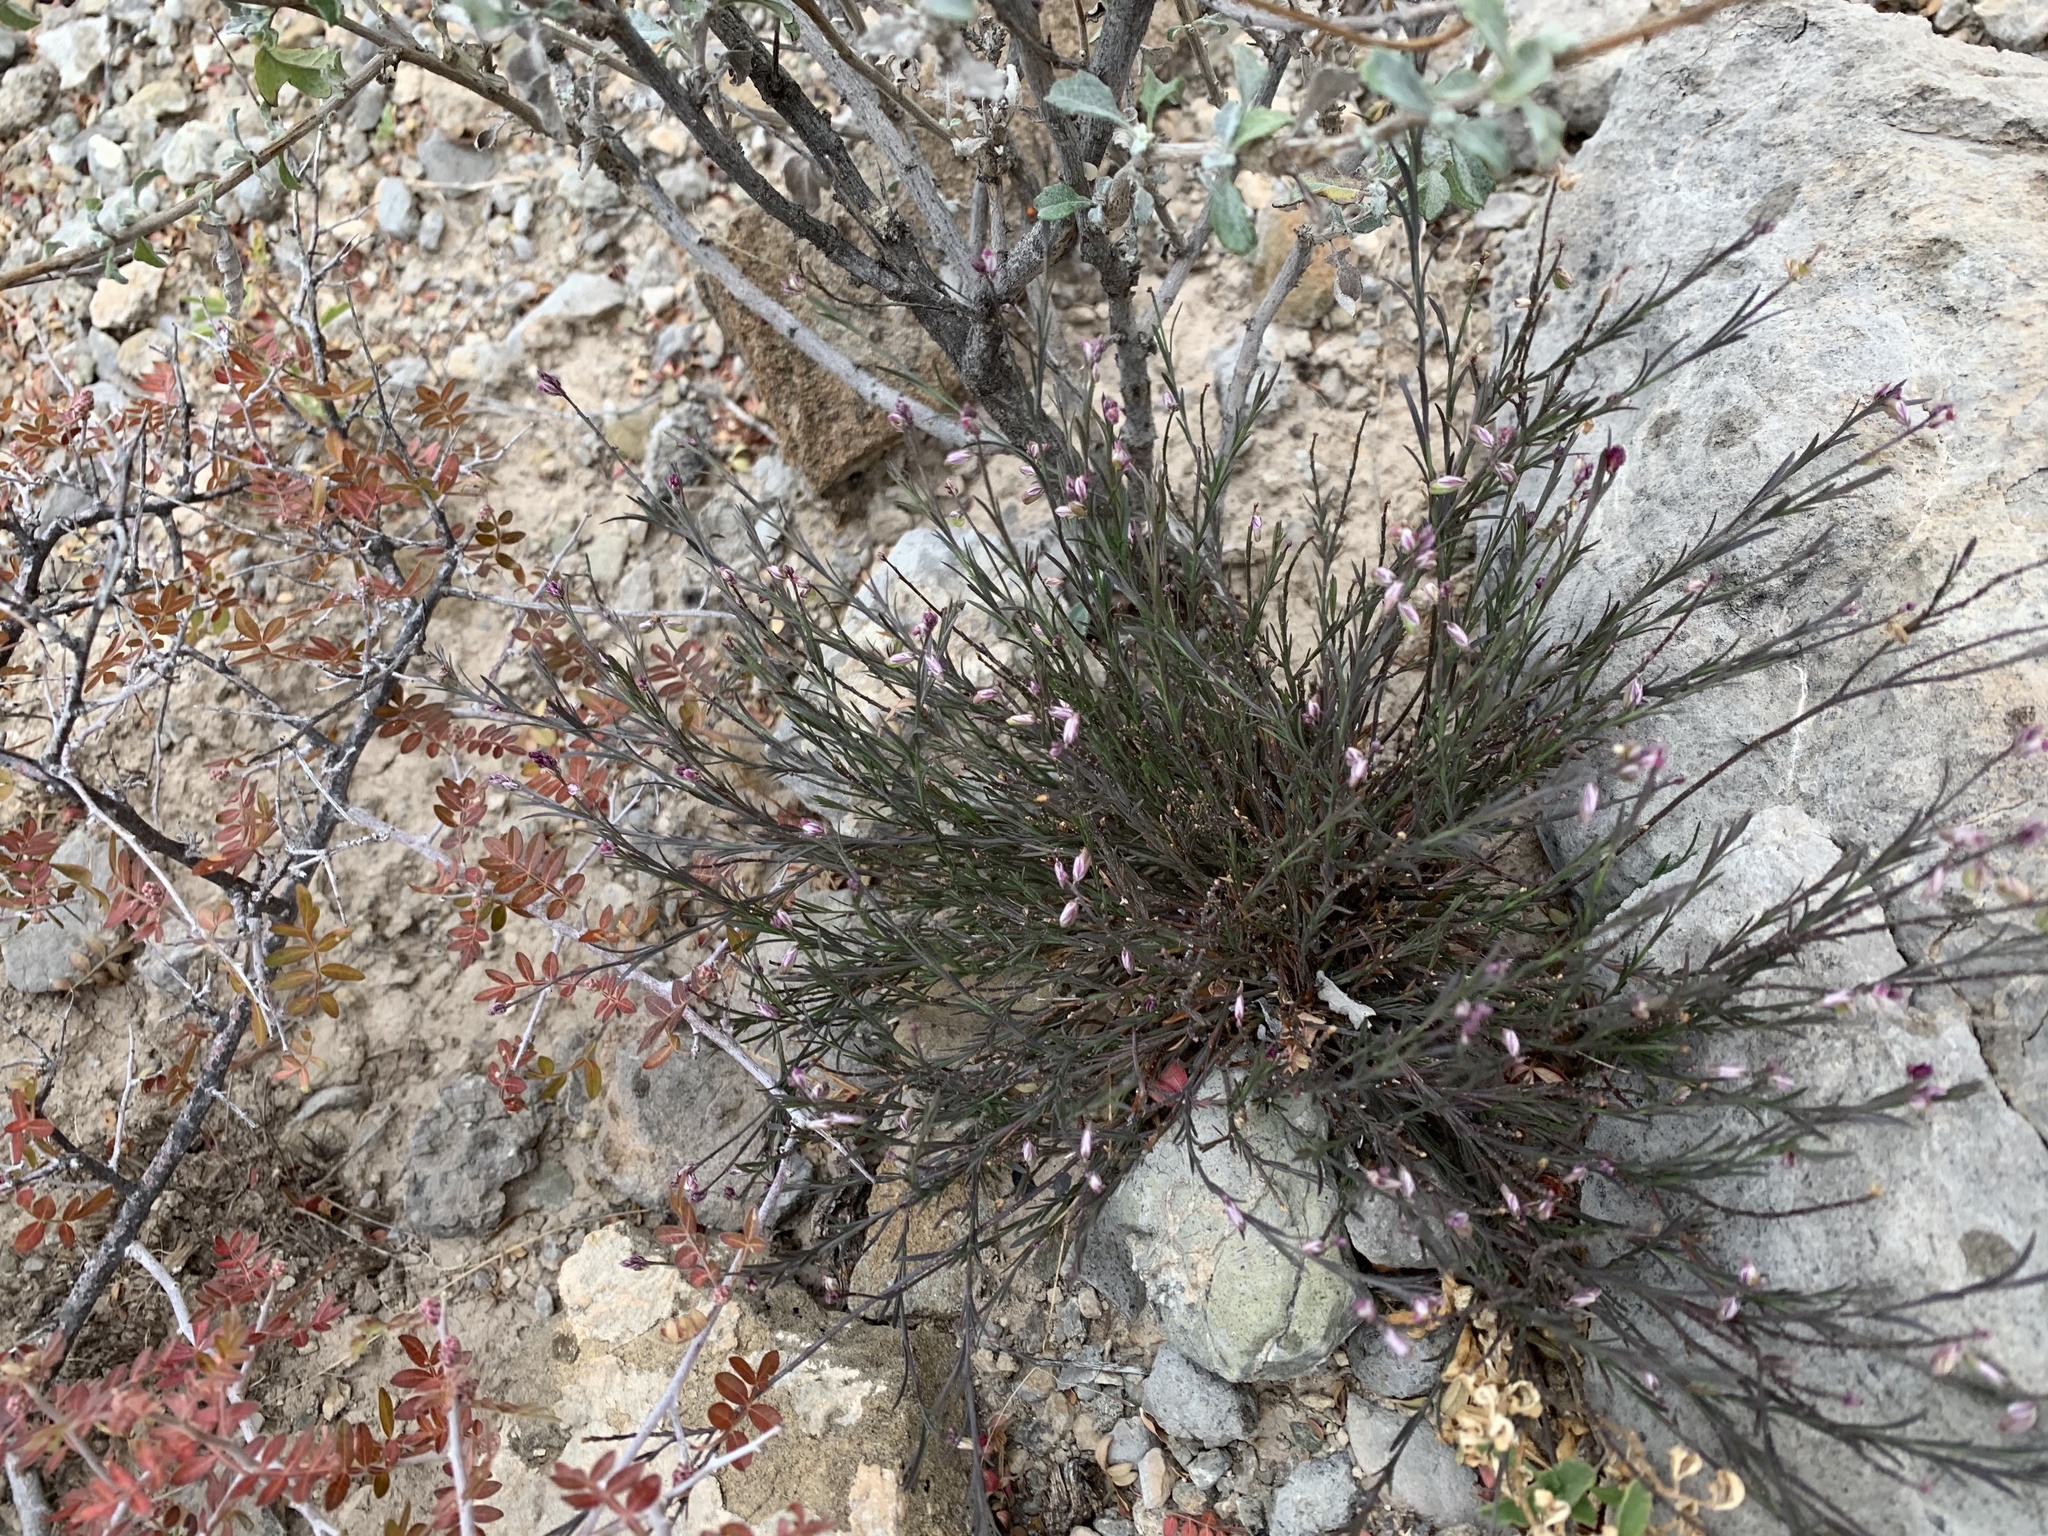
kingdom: Plantae
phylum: Tracheophyta
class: Magnoliopsida
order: Fabales
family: Polygalaceae
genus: Polygala
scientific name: Polygala scoparioides
